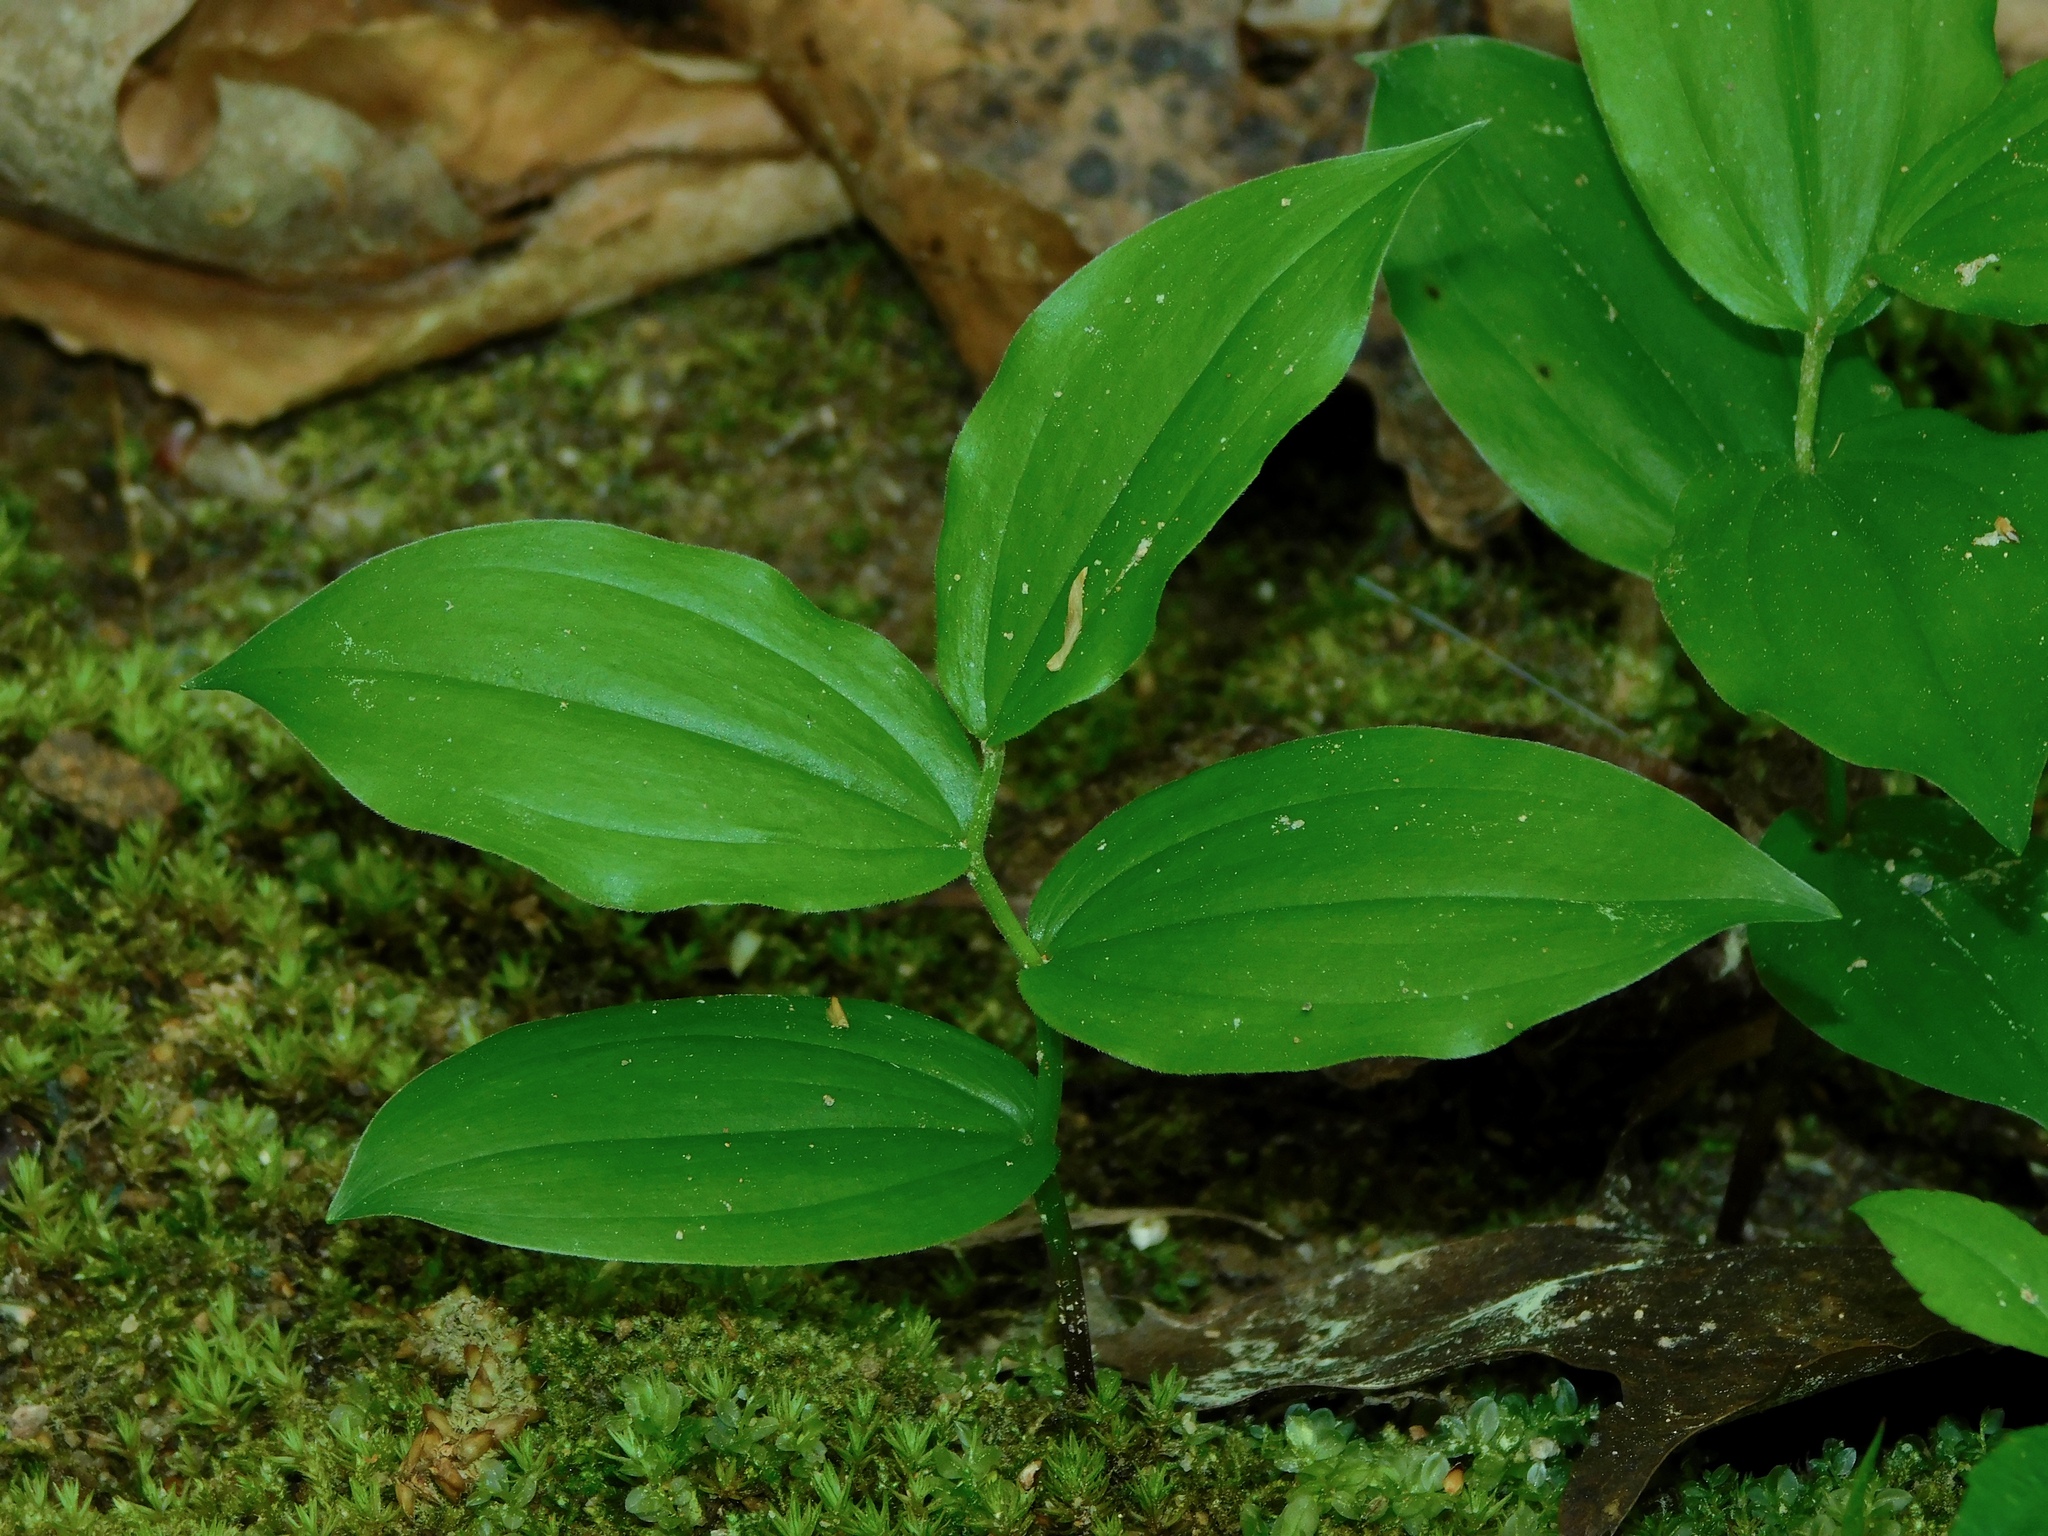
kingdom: Plantae
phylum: Tracheophyta
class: Liliopsida
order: Asparagales
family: Asparagaceae
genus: Maianthemum
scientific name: Maianthemum racemosum
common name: False spikenard
